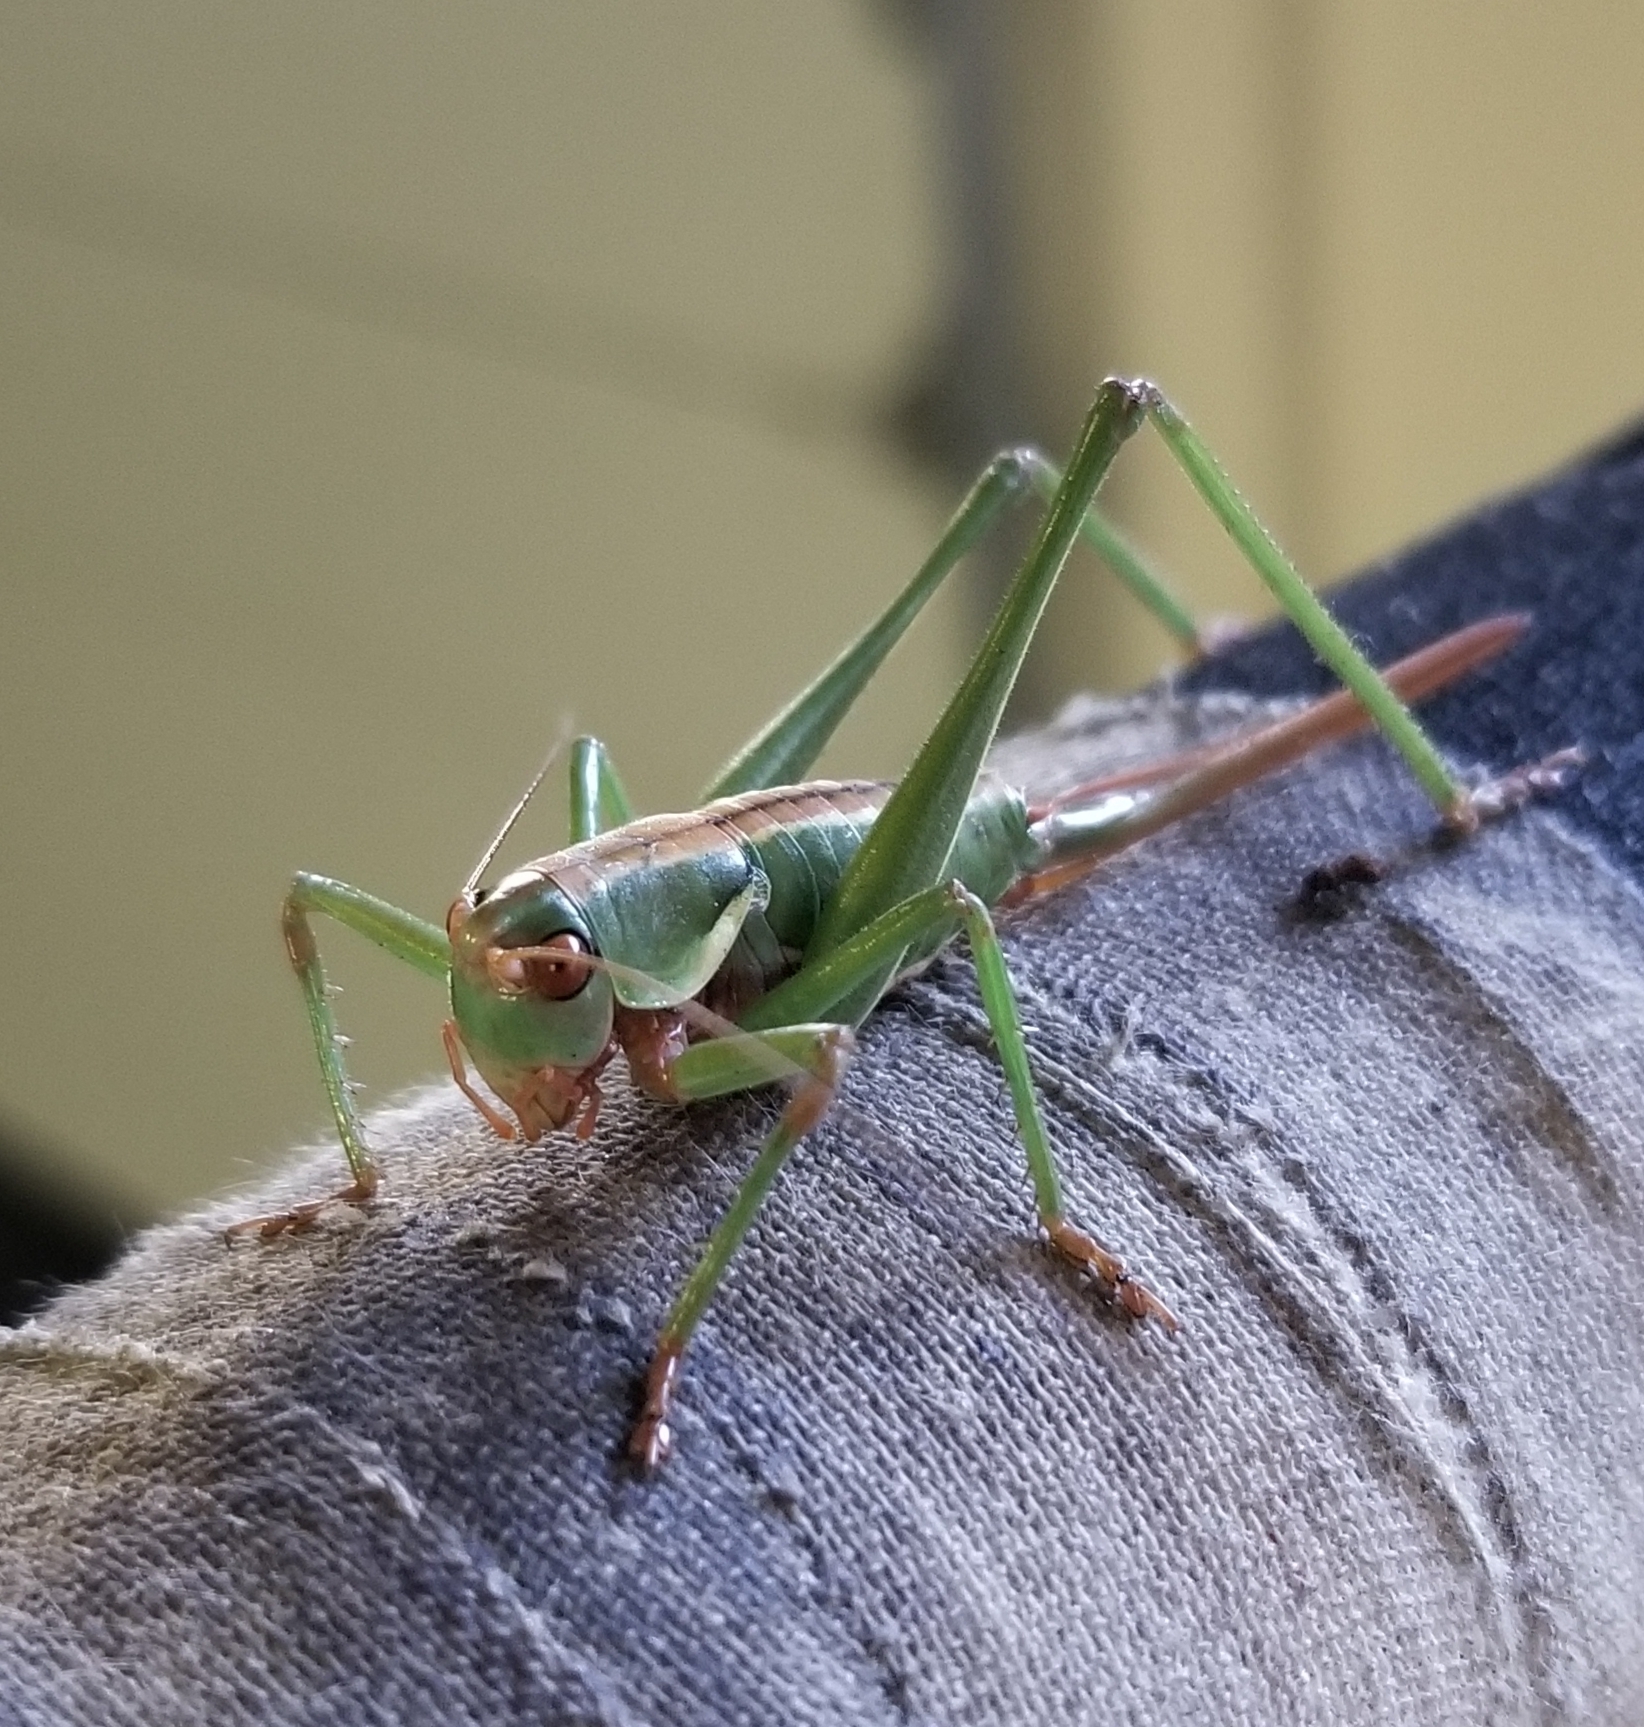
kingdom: Animalia
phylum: Arthropoda
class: Insecta
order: Orthoptera
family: Tettigoniidae
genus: Idiostatus
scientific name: Idiostatus aberrans
